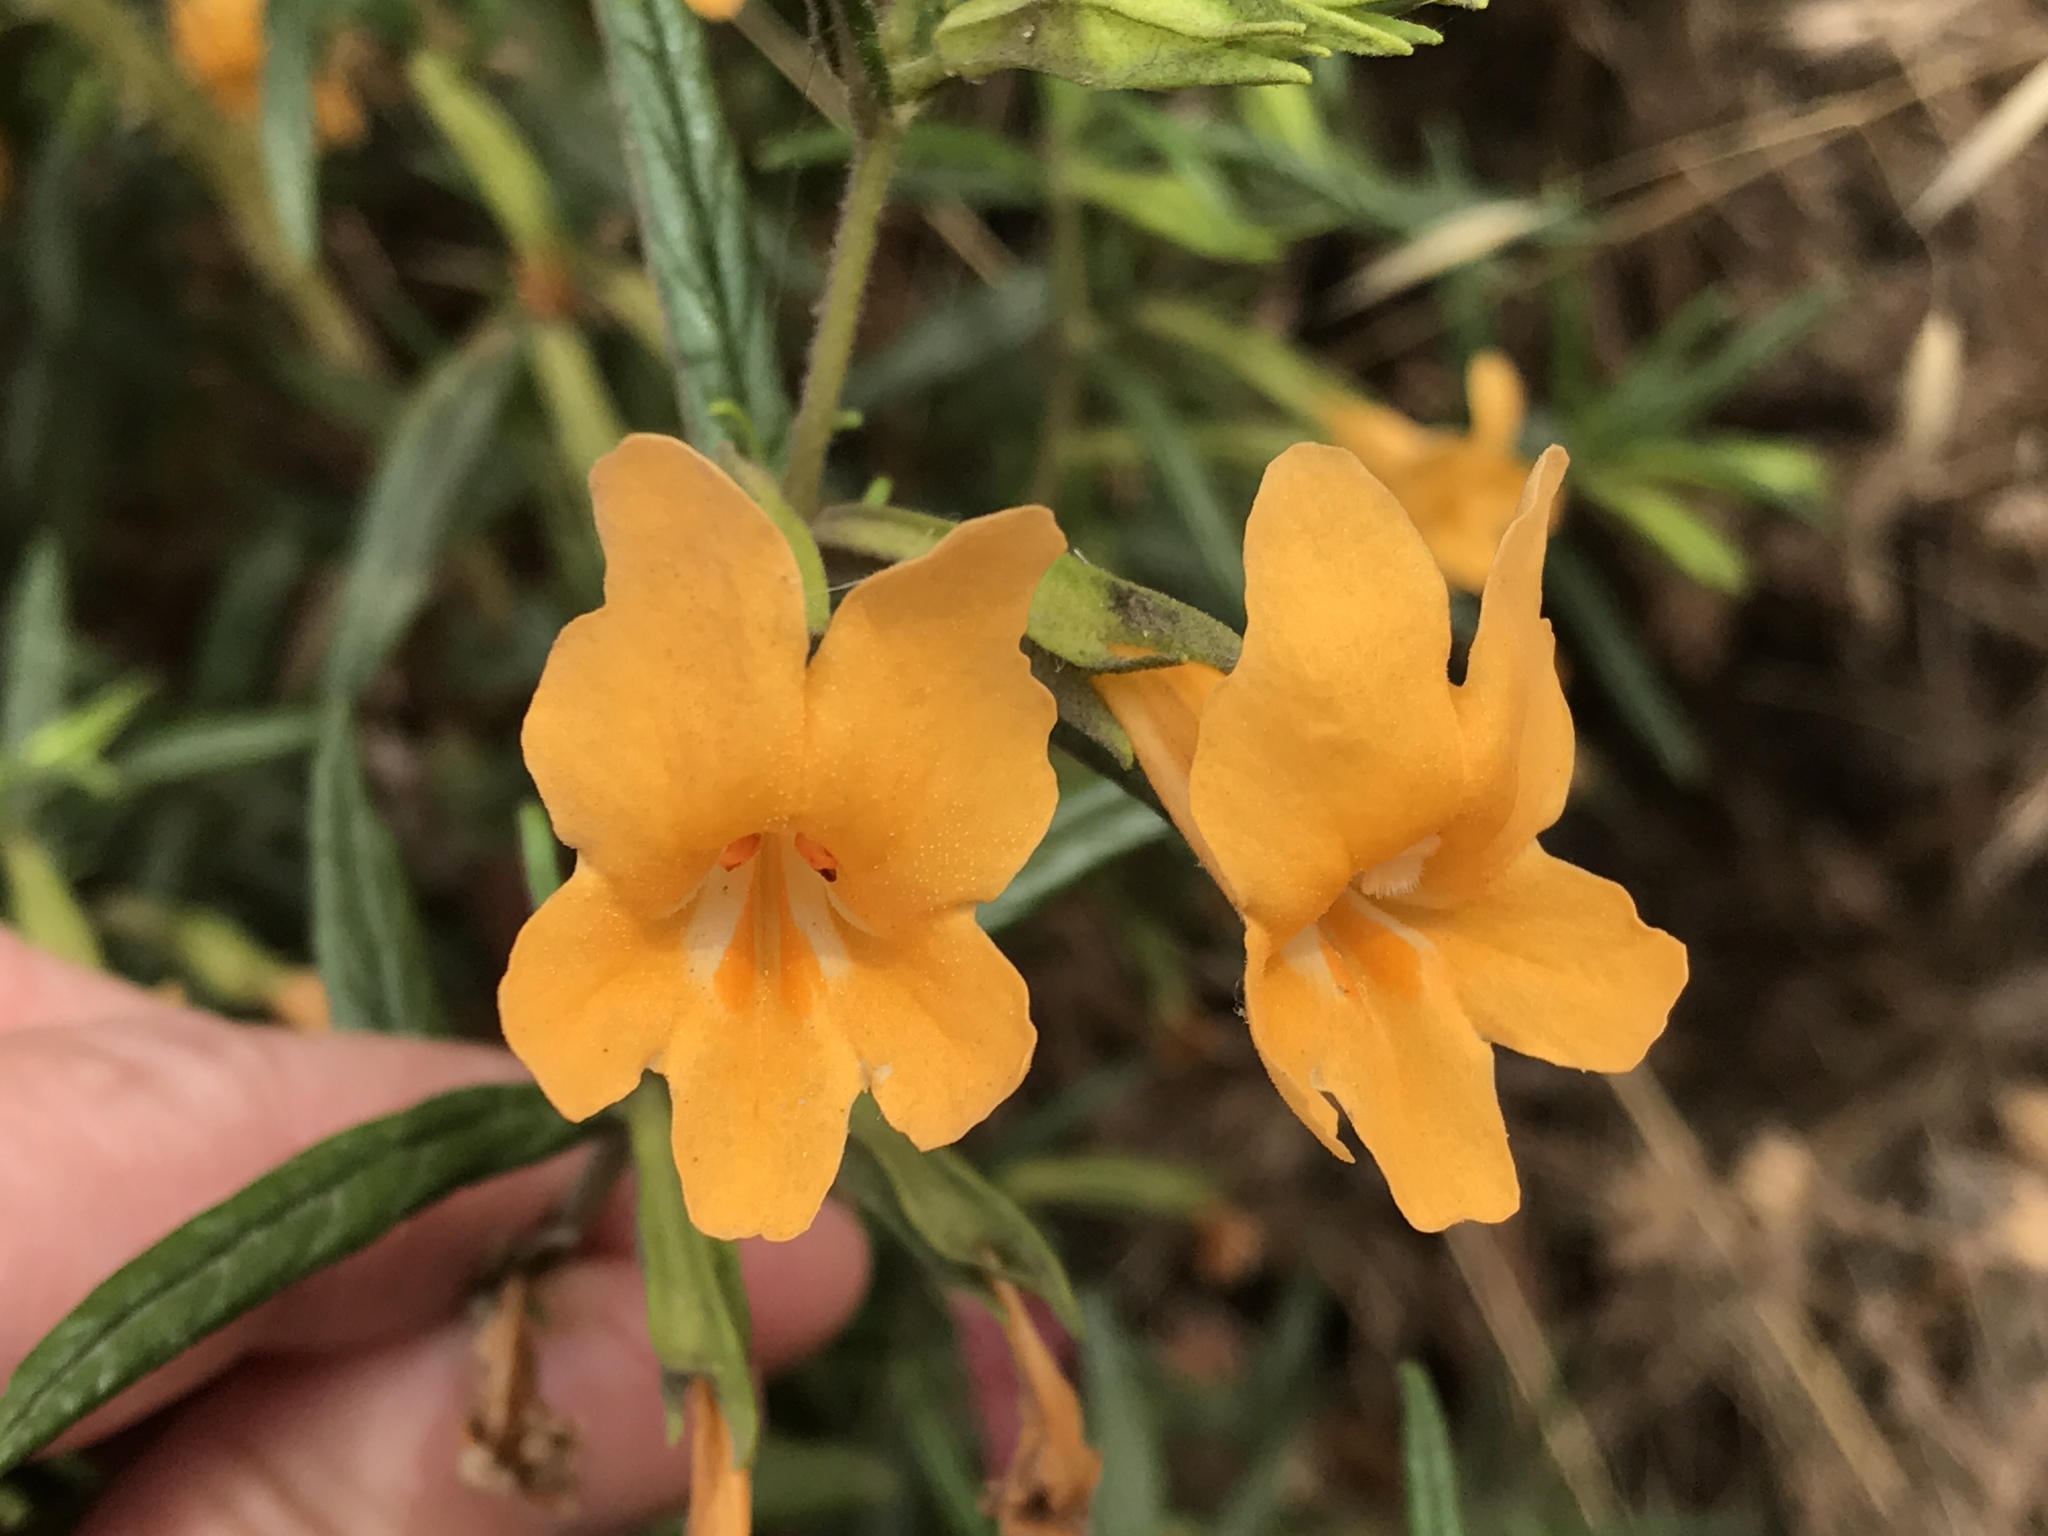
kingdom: Plantae
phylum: Tracheophyta
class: Magnoliopsida
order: Lamiales
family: Phrymaceae
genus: Diplacus
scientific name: Diplacus aurantiacus
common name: Bush monkey-flower
